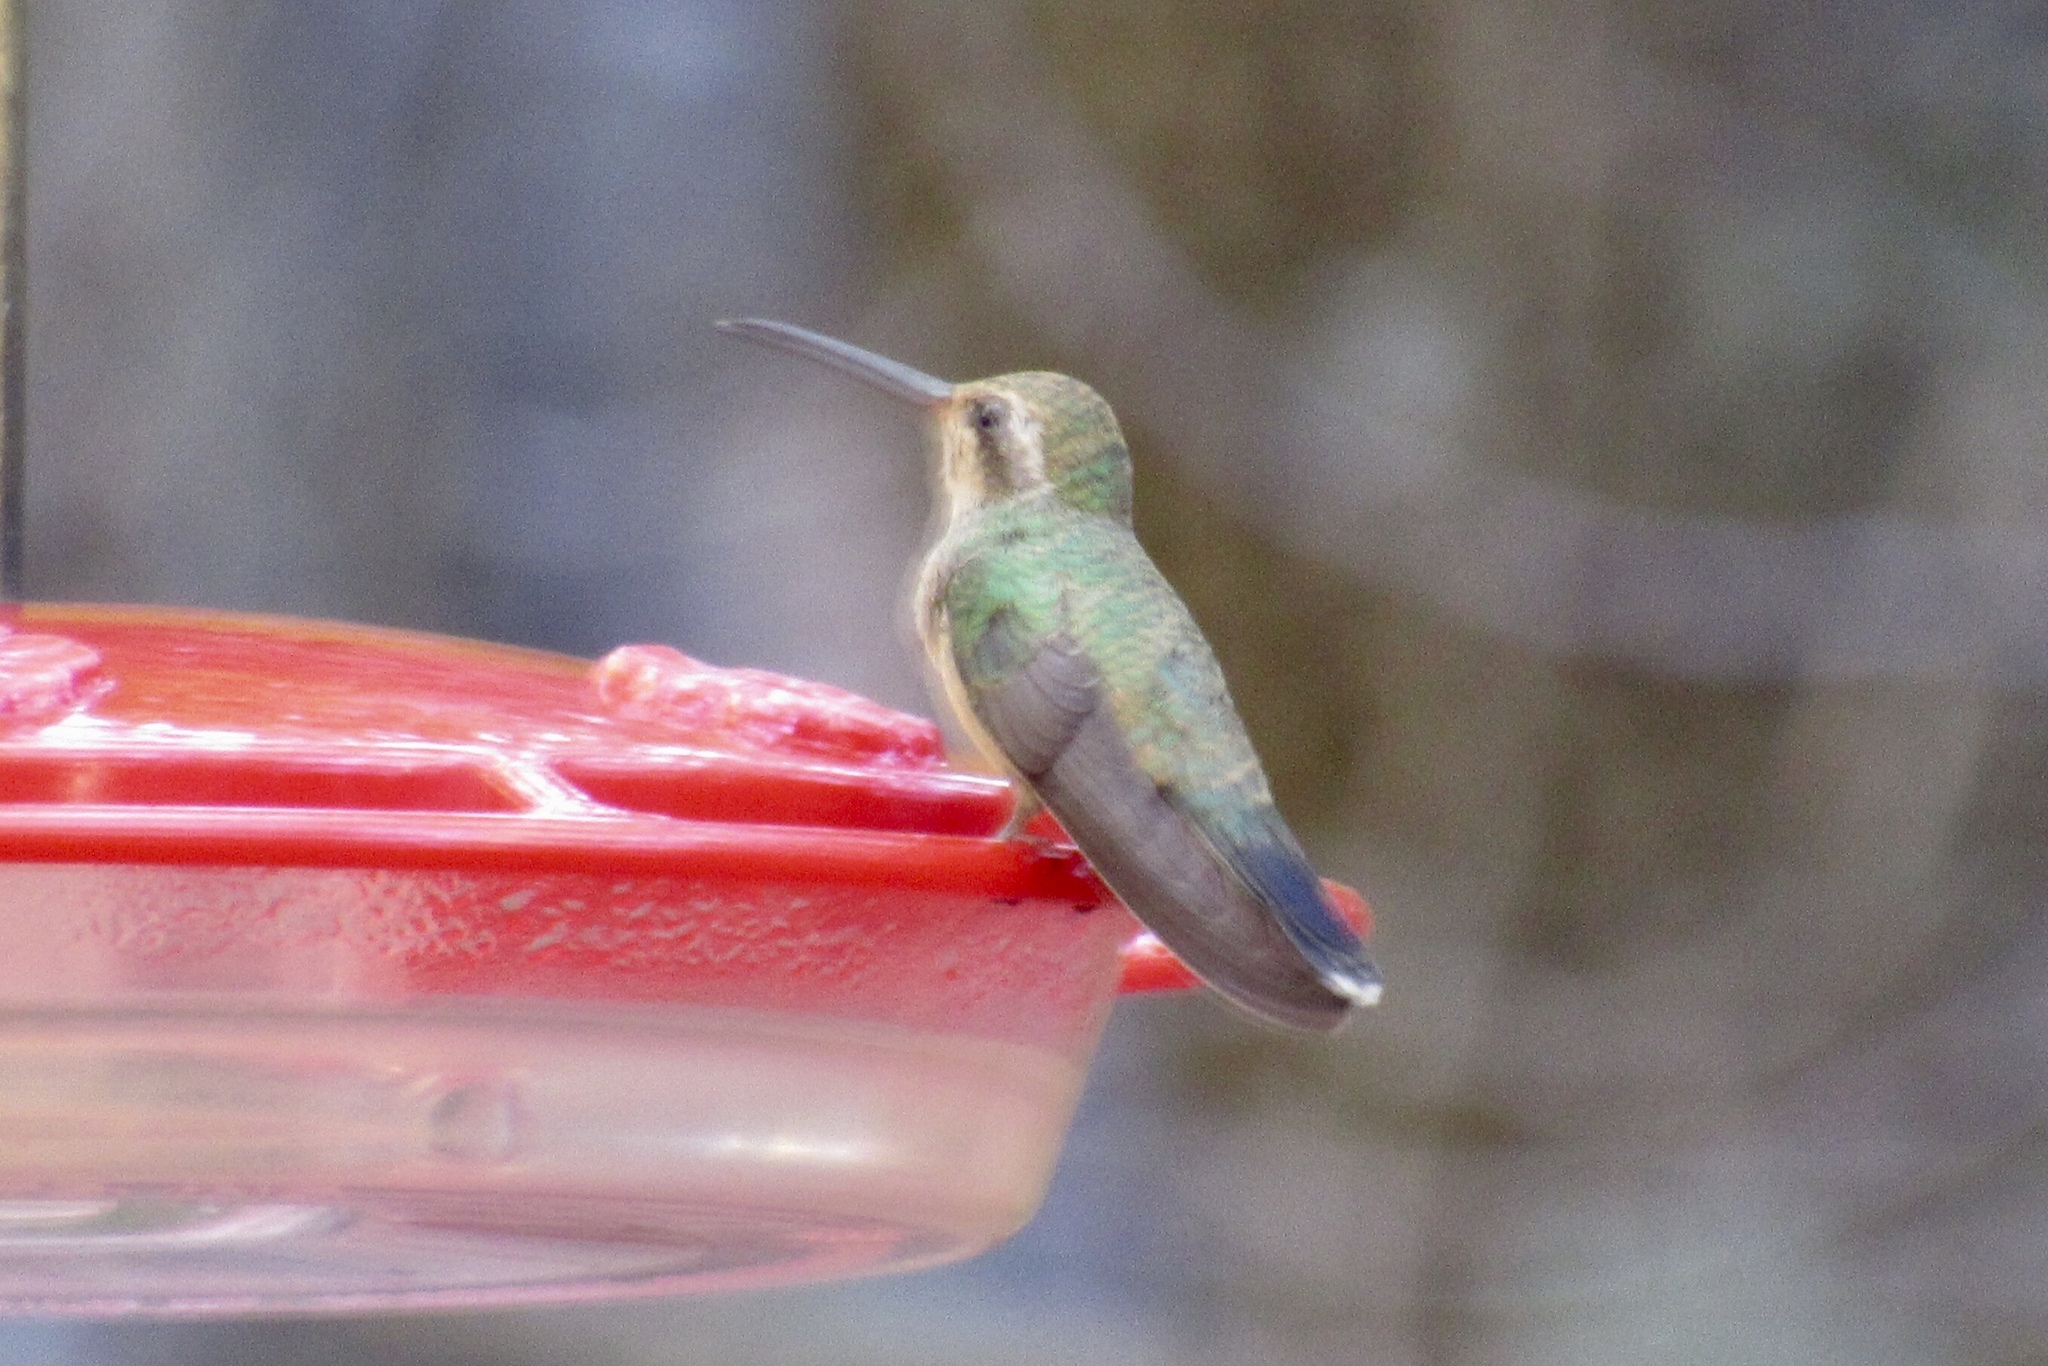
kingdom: Animalia
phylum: Chordata
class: Aves
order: Apodiformes
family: Trochilidae
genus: Cynanthus
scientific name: Cynanthus latirostris
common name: Broad-billed hummingbird
